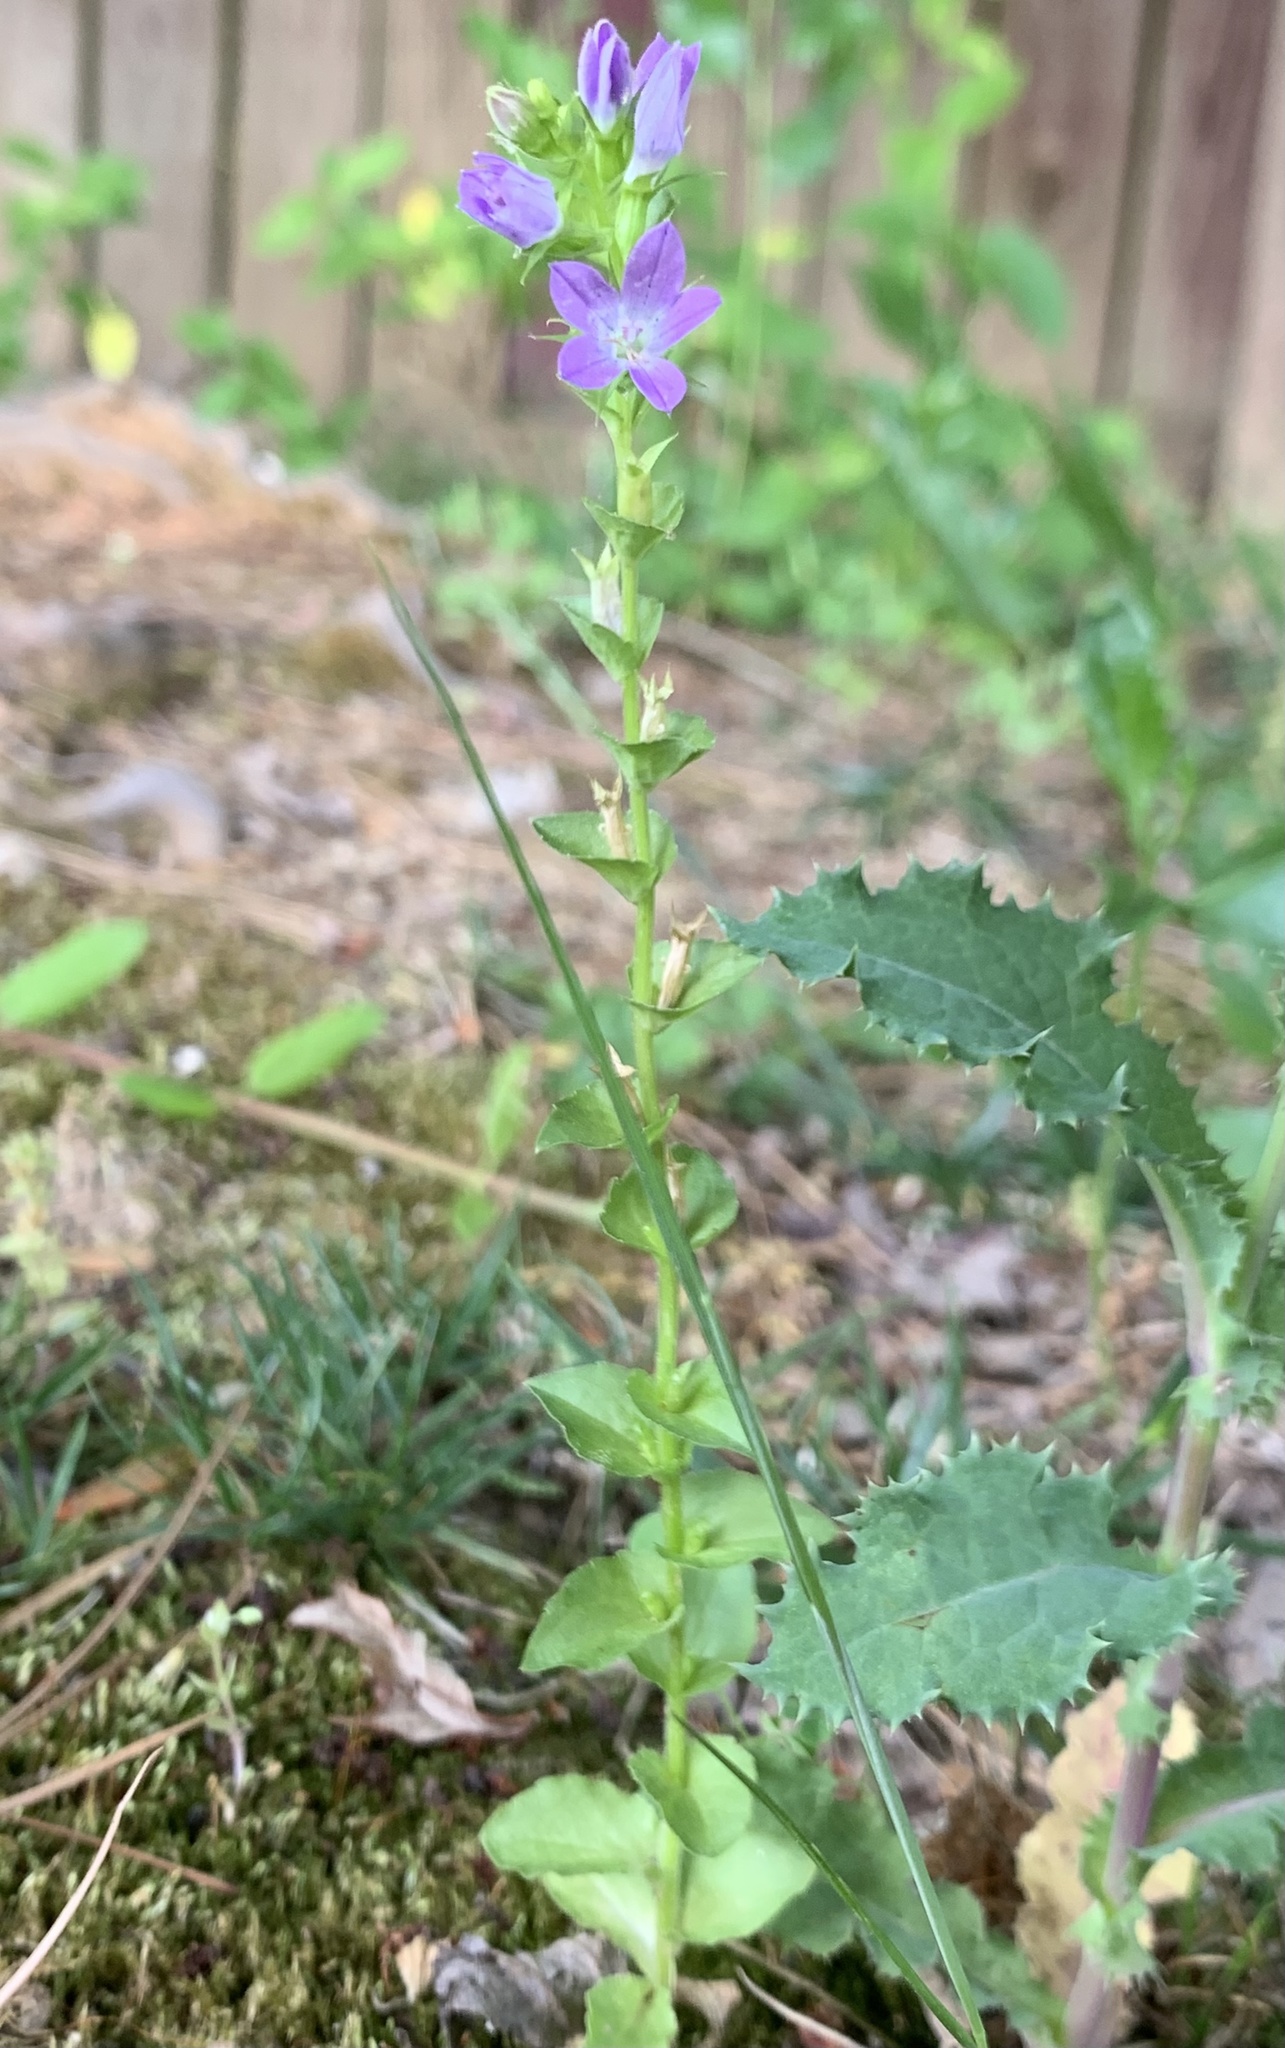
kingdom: Plantae
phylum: Tracheophyta
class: Magnoliopsida
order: Asterales
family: Campanulaceae
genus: Triodanis
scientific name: Triodanis perfoliata
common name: Clasping venus' looking-glass
